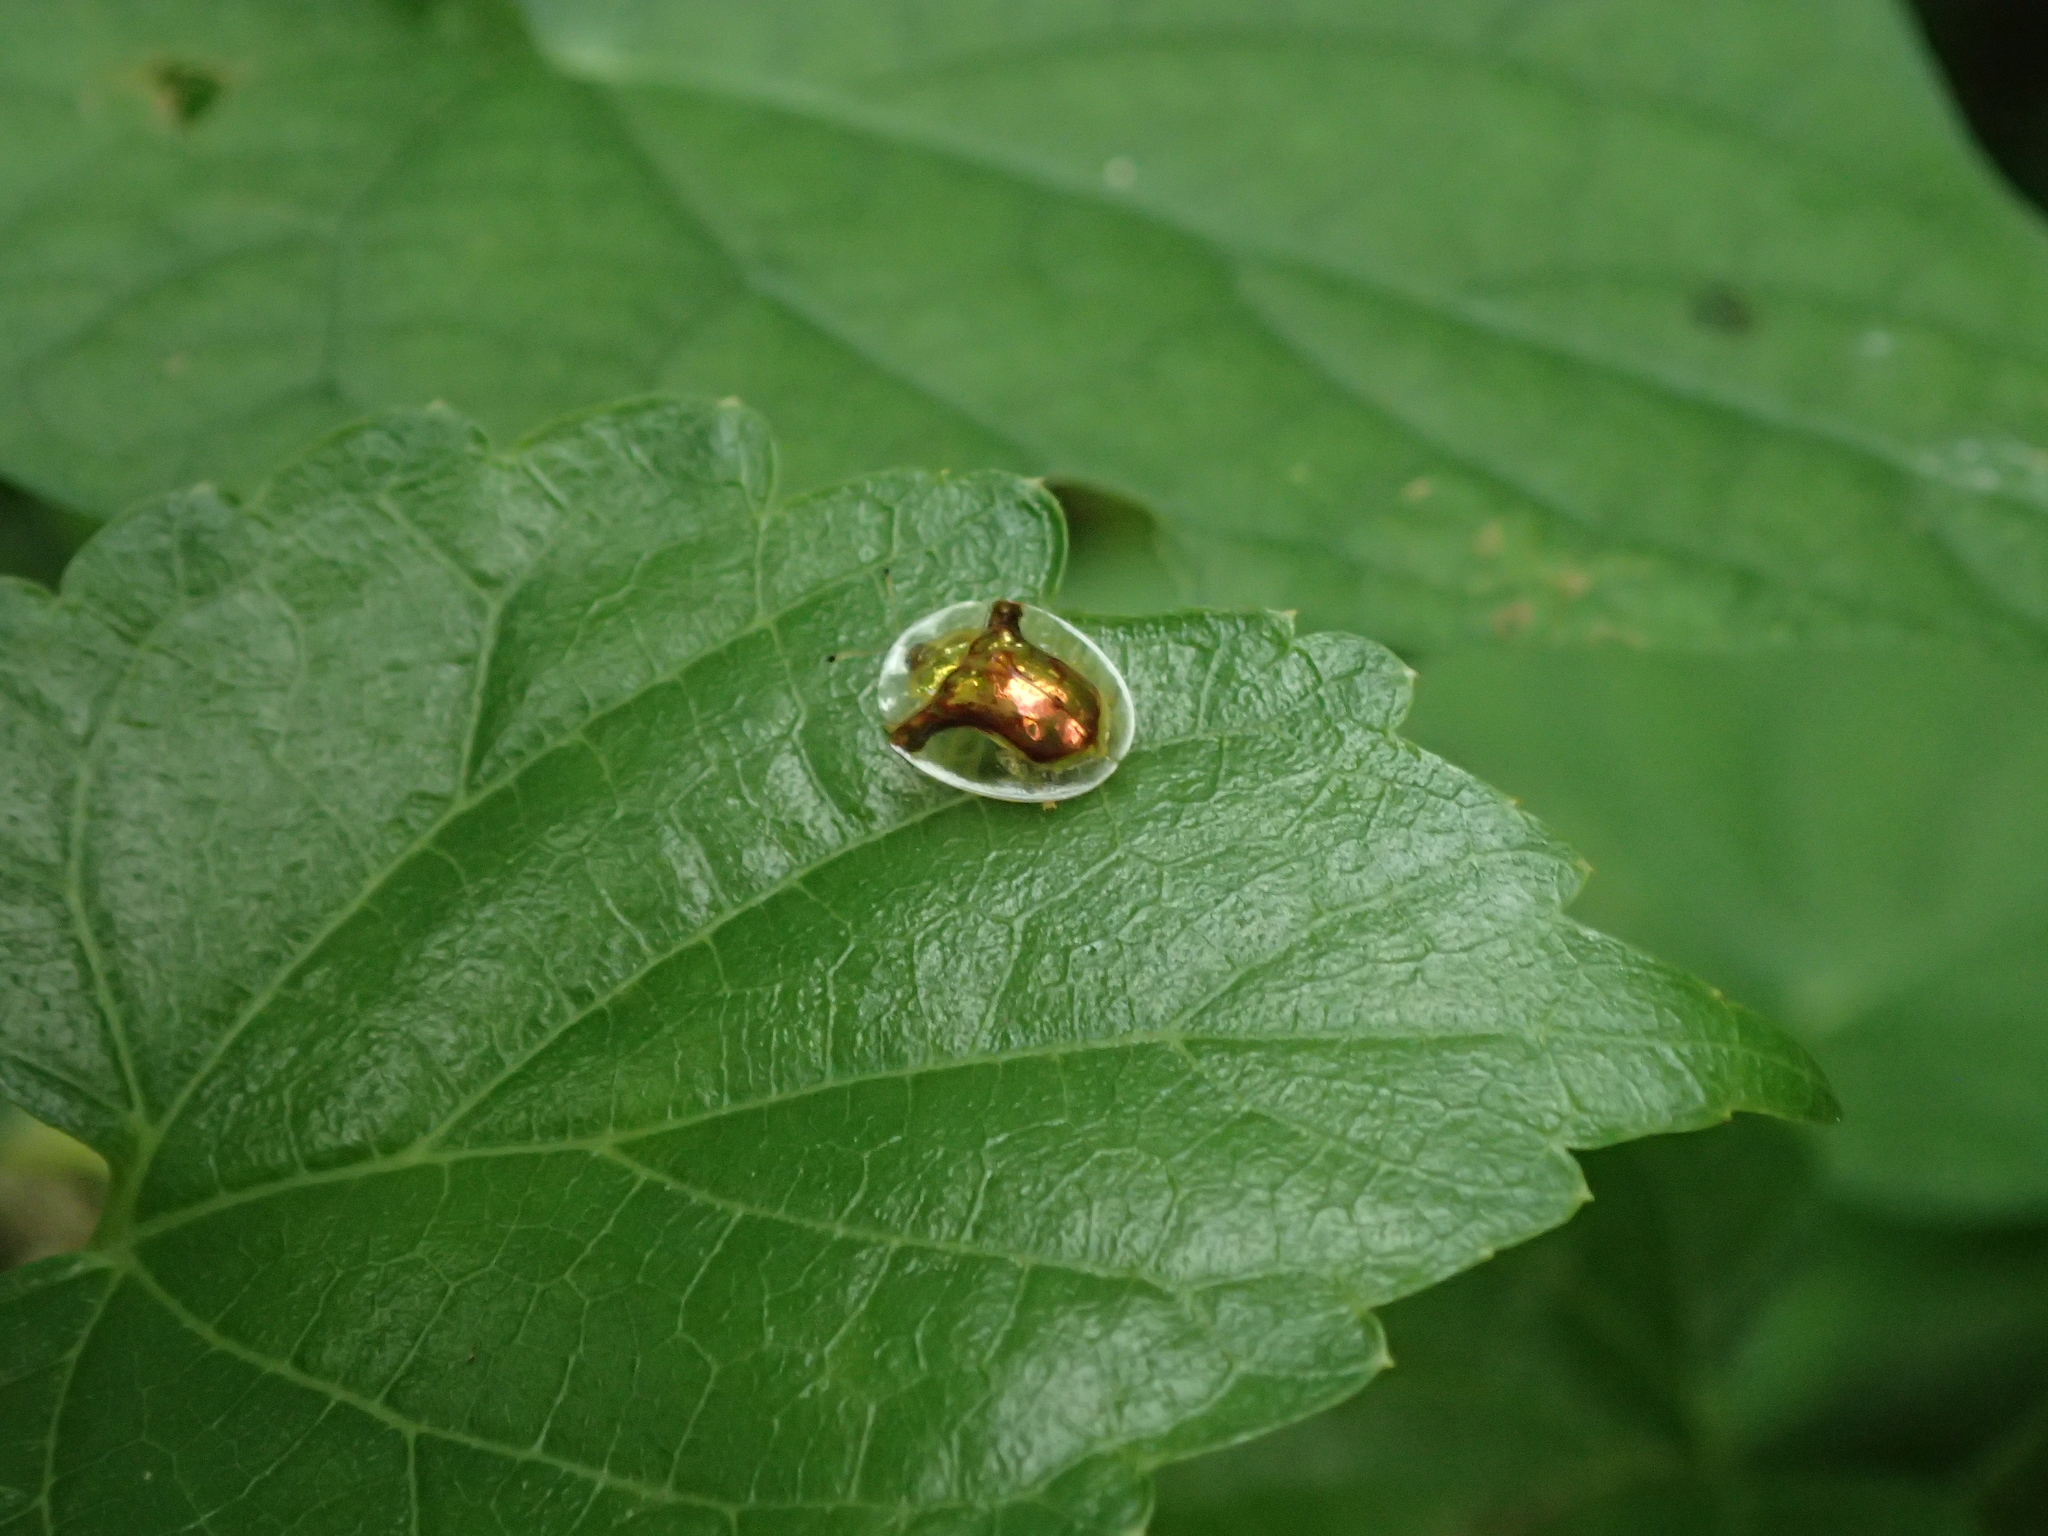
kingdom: Animalia
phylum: Arthropoda
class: Insecta
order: Coleoptera
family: Chrysomelidae
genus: Aspidimorpha
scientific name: Aspidimorpha furcata
